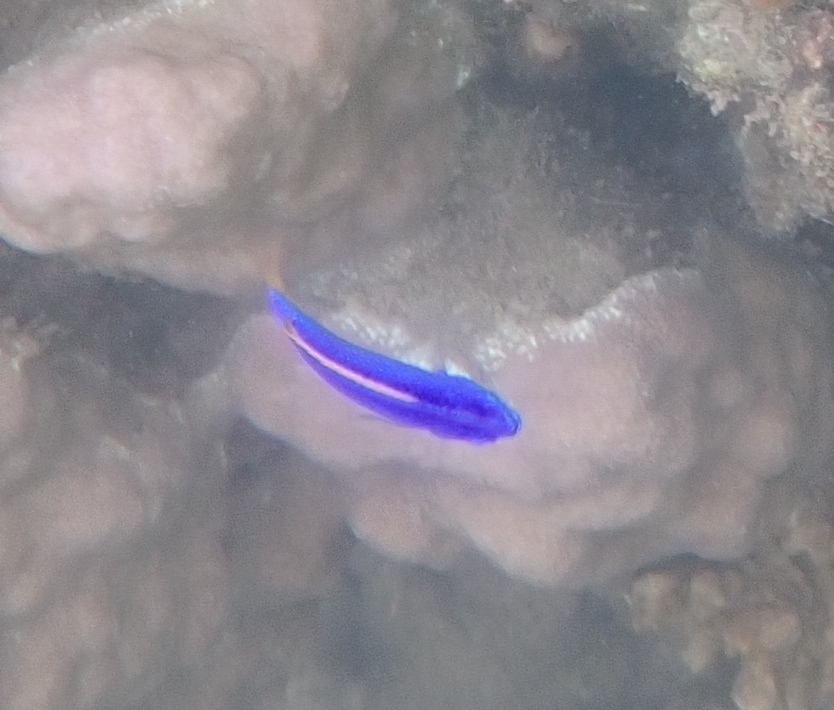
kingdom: Animalia
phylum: Chordata
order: Perciformes
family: Pomacentridae
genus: Chrysiptera
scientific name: Chrysiptera taupou
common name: Fiji damsel
